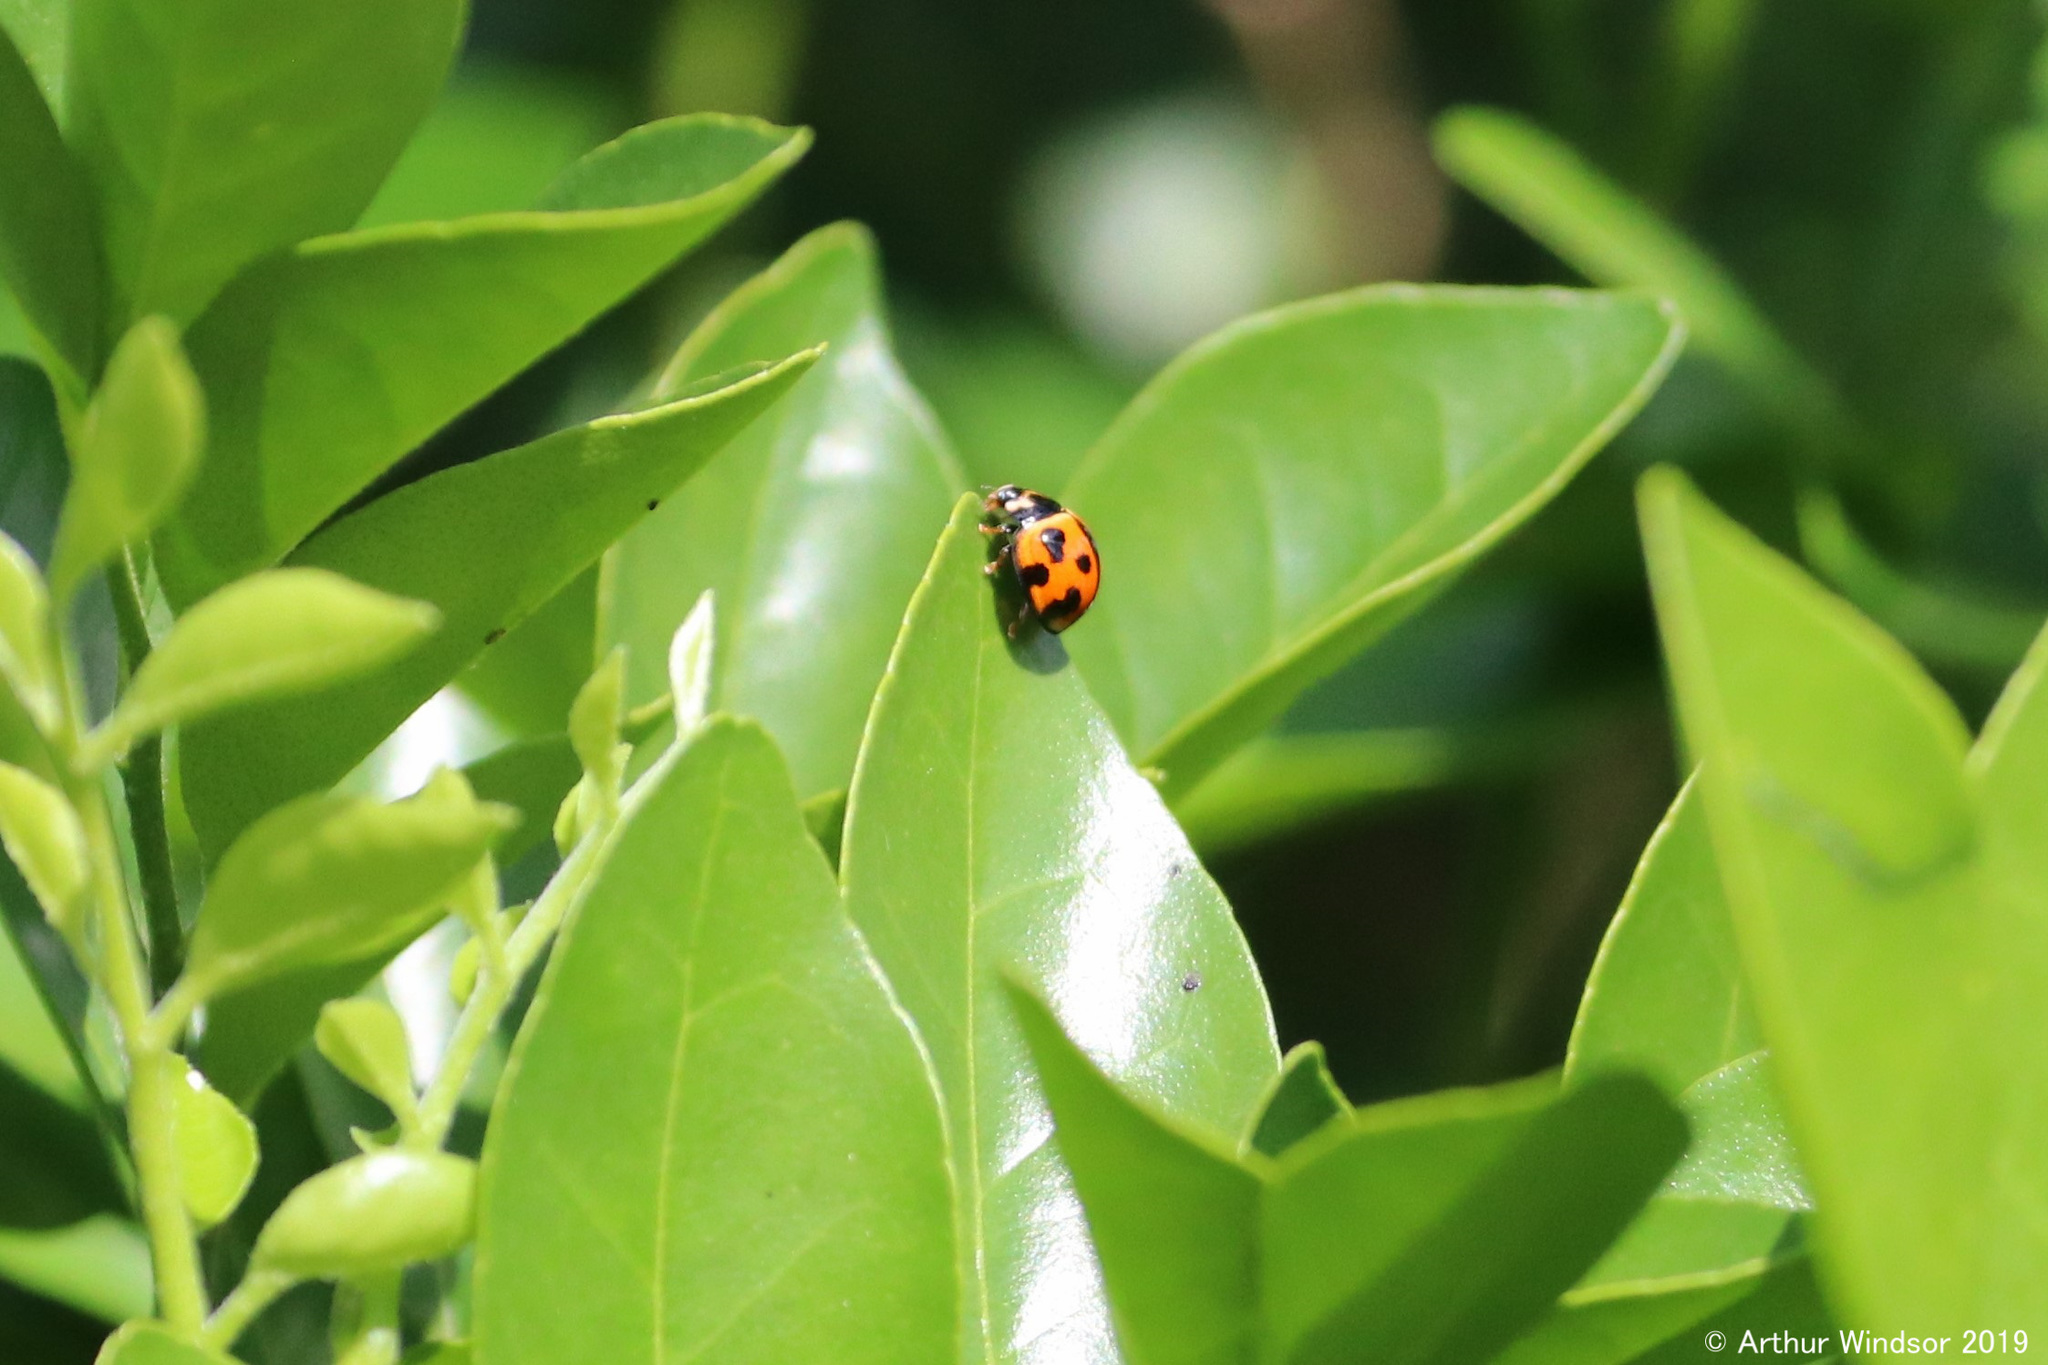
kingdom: Animalia
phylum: Arthropoda
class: Insecta
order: Coleoptera
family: Coccinellidae
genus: Coelophora
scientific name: Coelophora inaequalis
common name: Common australian lady beetle
